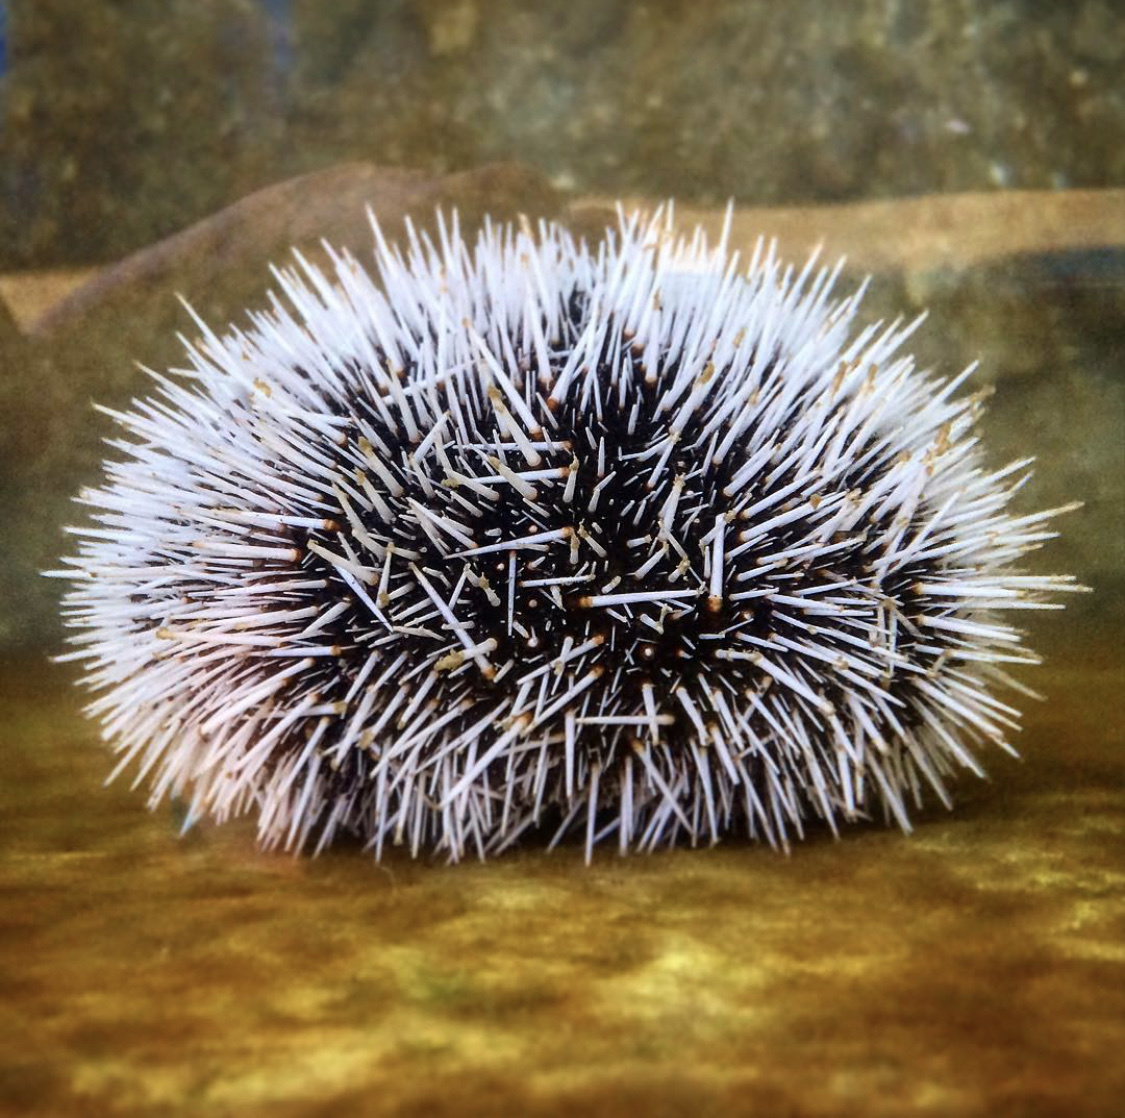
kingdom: Animalia
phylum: Echinodermata
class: Echinoidea
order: Camarodonta
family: Toxopneustidae
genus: Tripneustes
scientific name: Tripneustes ventricosus
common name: West indian sea egg
